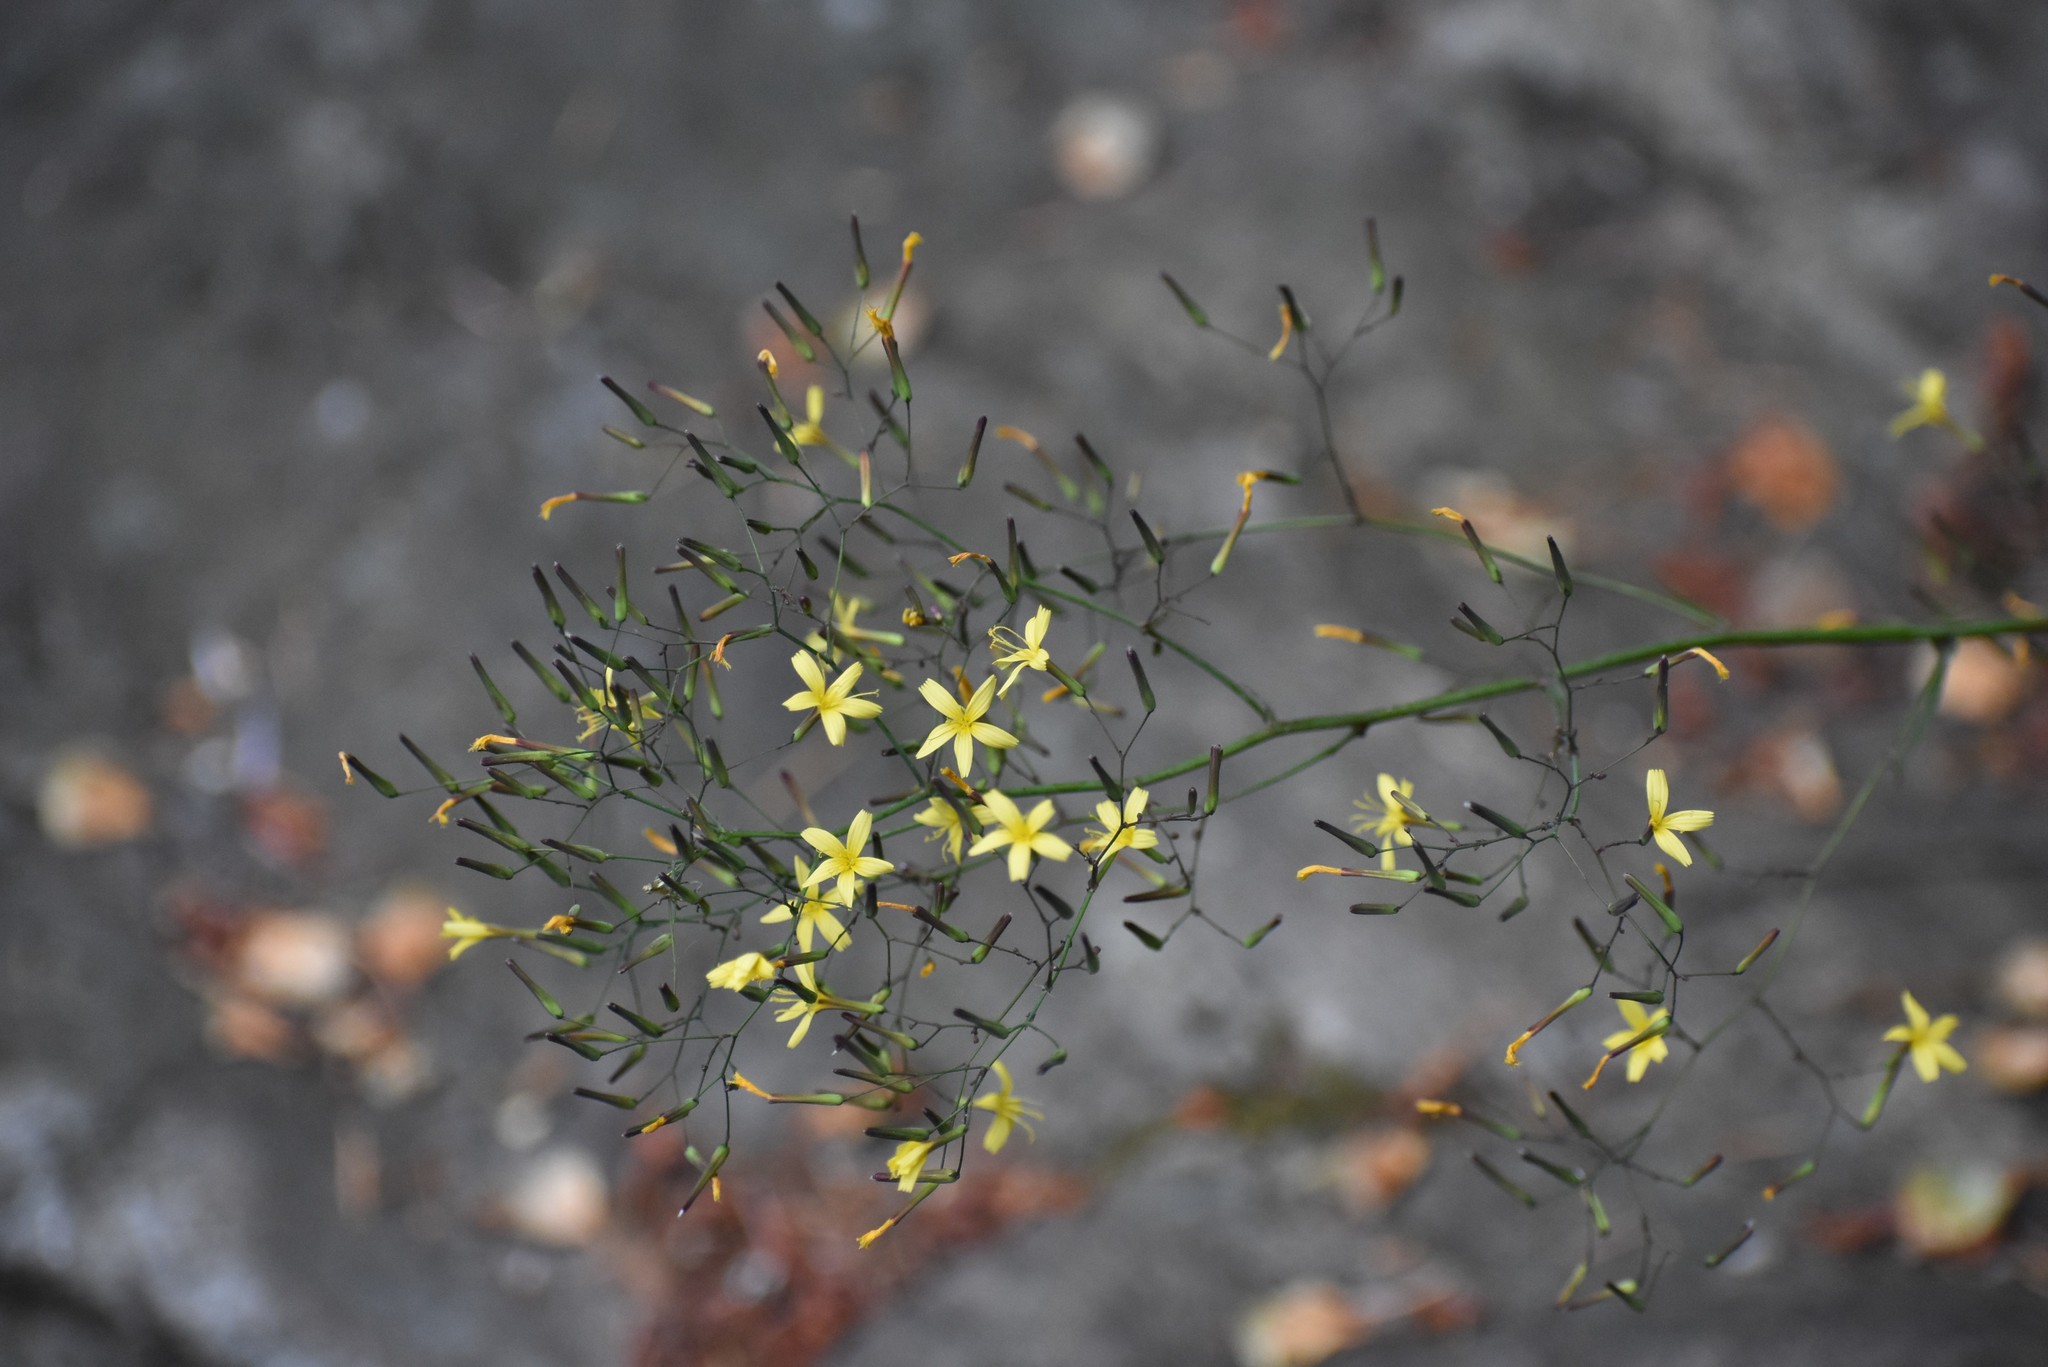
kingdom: Plantae
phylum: Tracheophyta
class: Magnoliopsida
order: Asterales
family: Asteraceae
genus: Mycelis
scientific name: Mycelis muralis
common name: Wall lettuce
